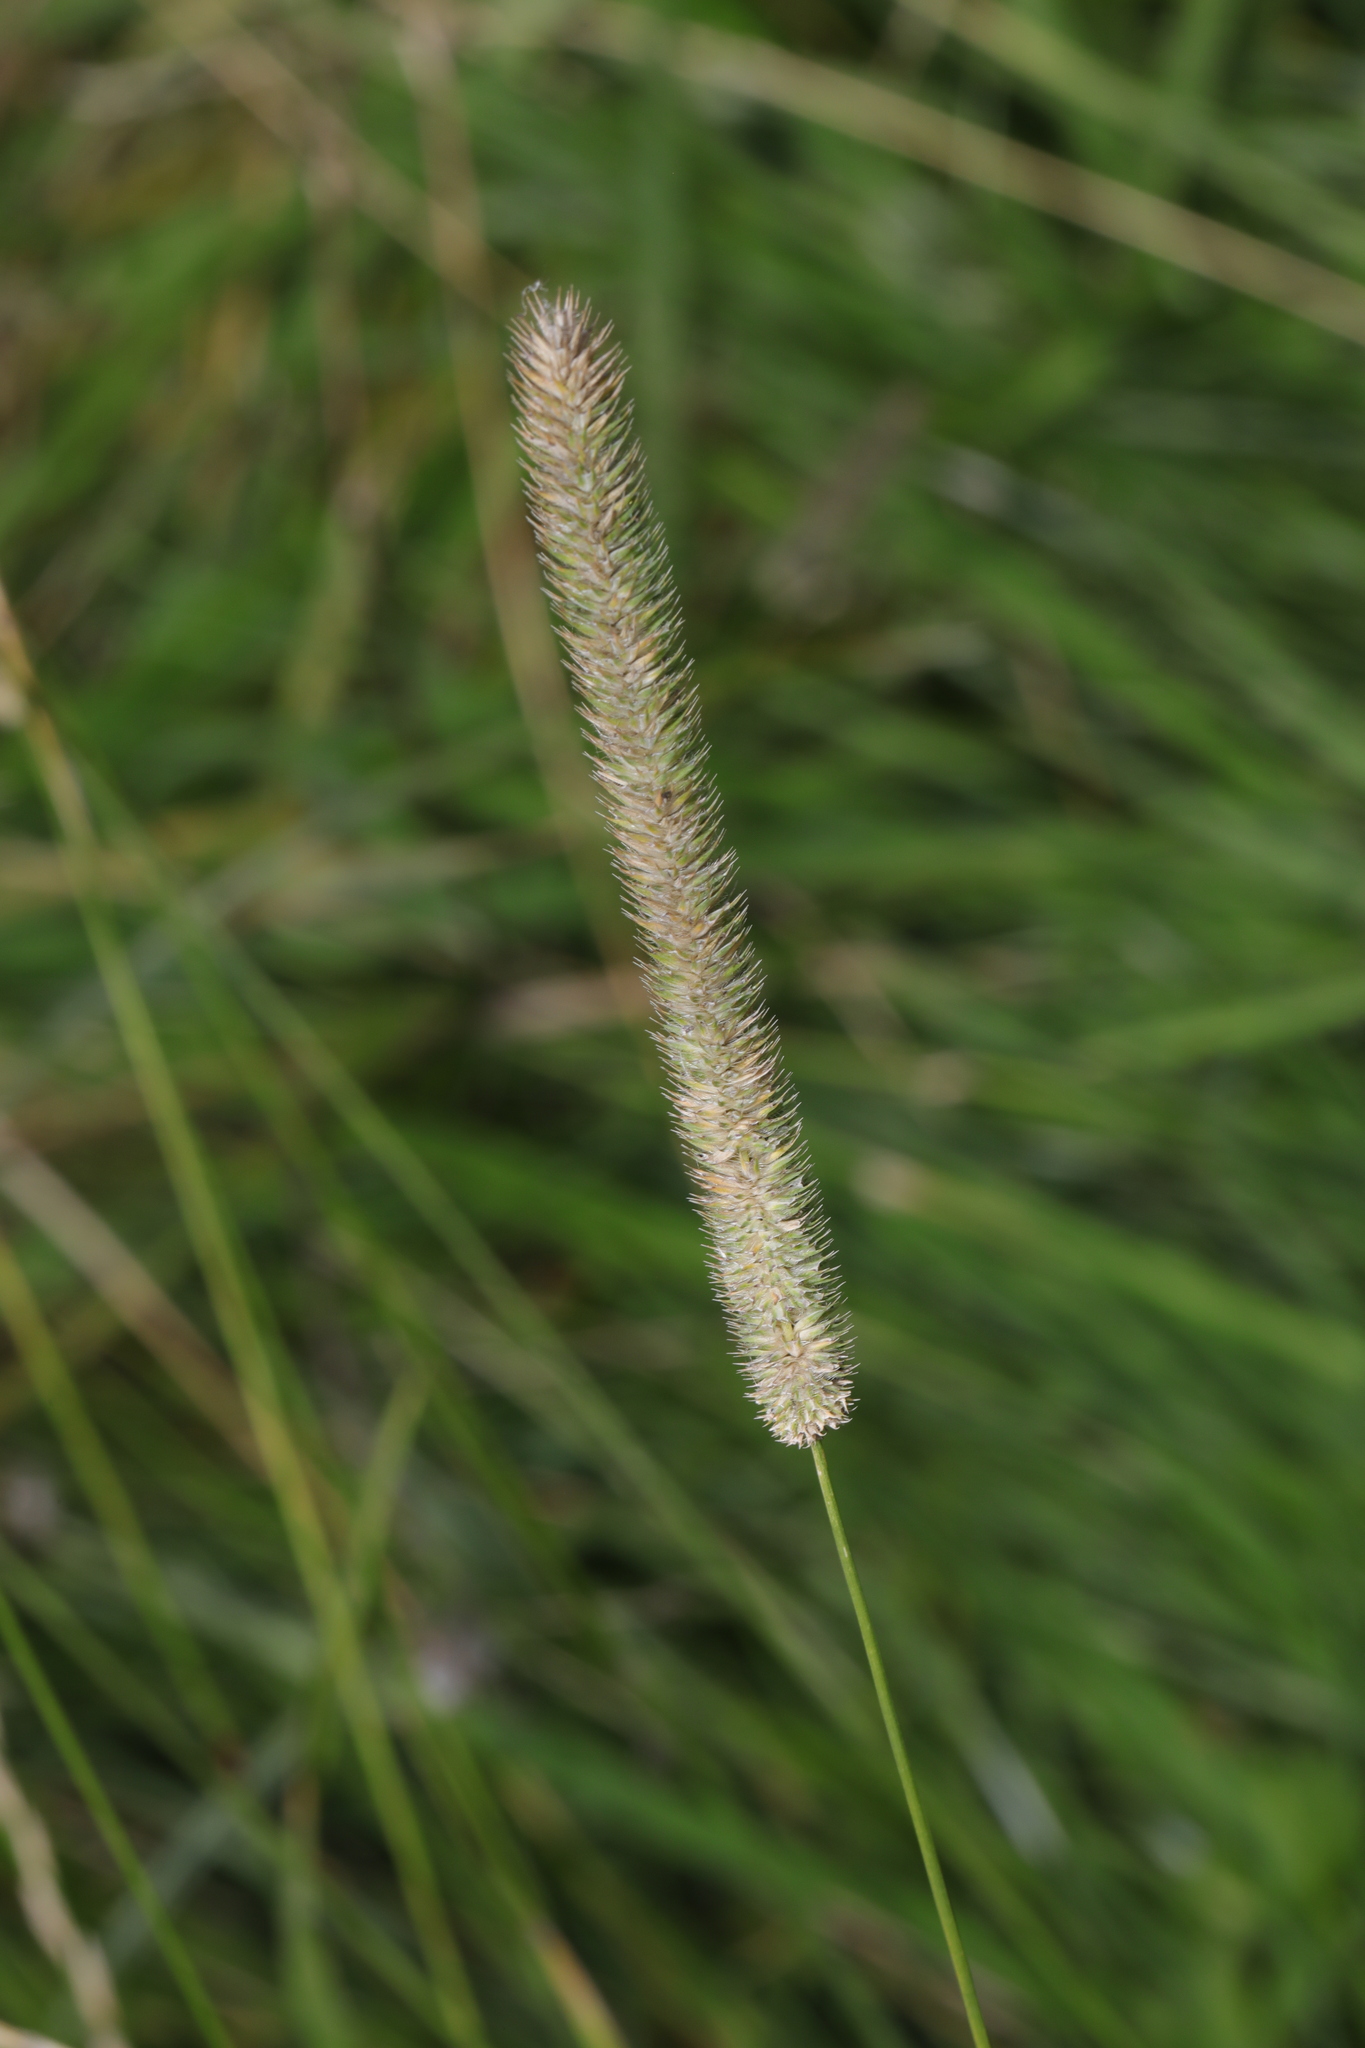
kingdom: Plantae
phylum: Tracheophyta
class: Liliopsida
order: Poales
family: Poaceae
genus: Phleum
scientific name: Phleum pratense
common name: Timothy grass
